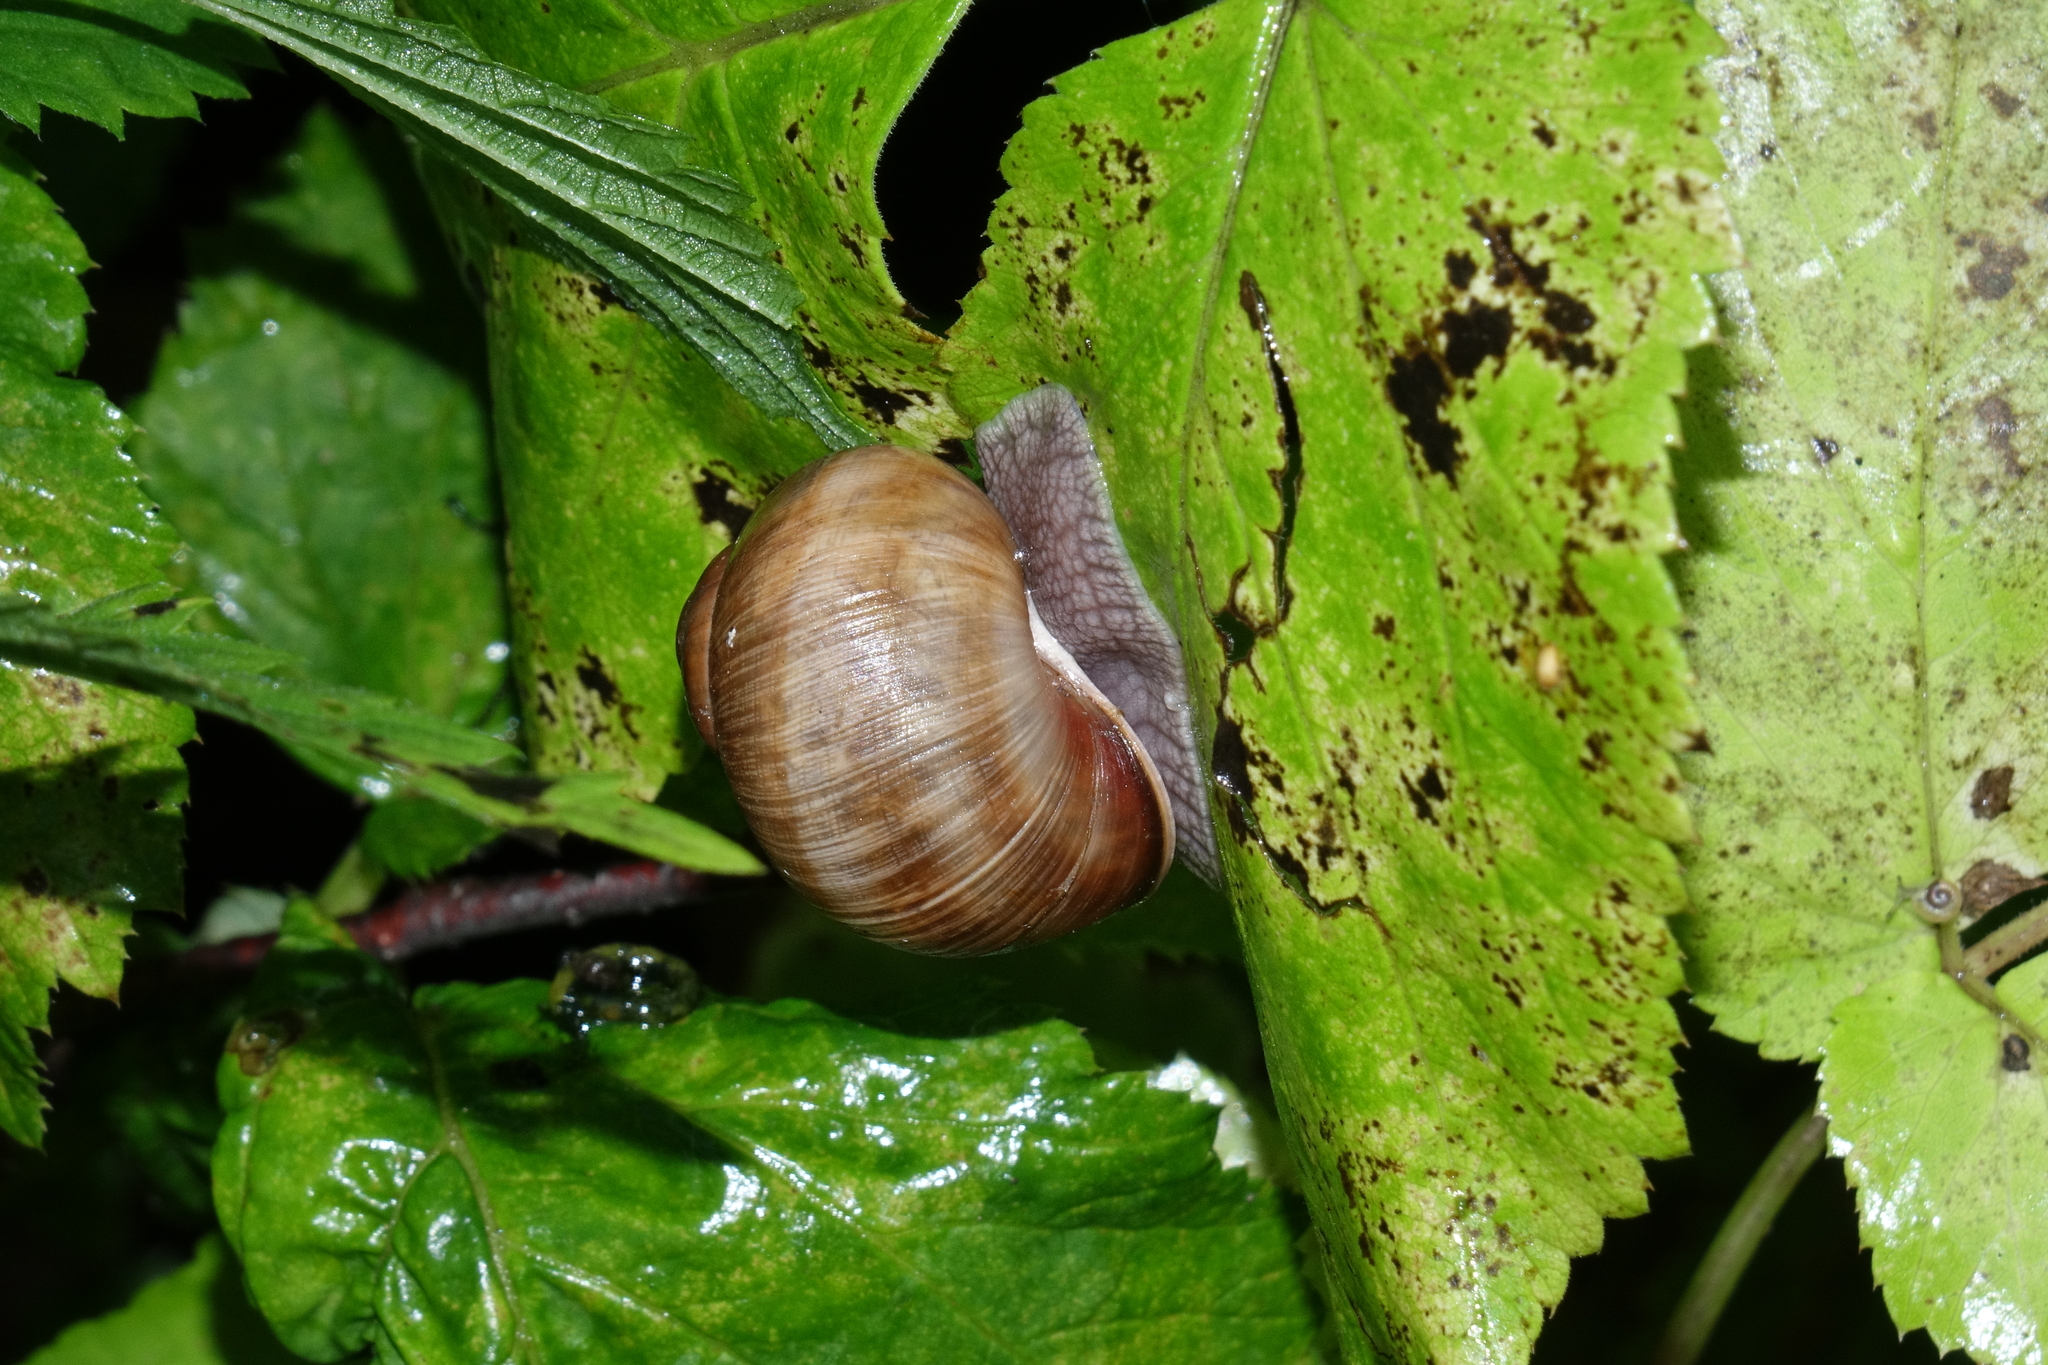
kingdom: Animalia
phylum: Mollusca
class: Gastropoda
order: Stylommatophora
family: Helicidae
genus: Helix
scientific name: Helix pomatia
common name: Roman snail
